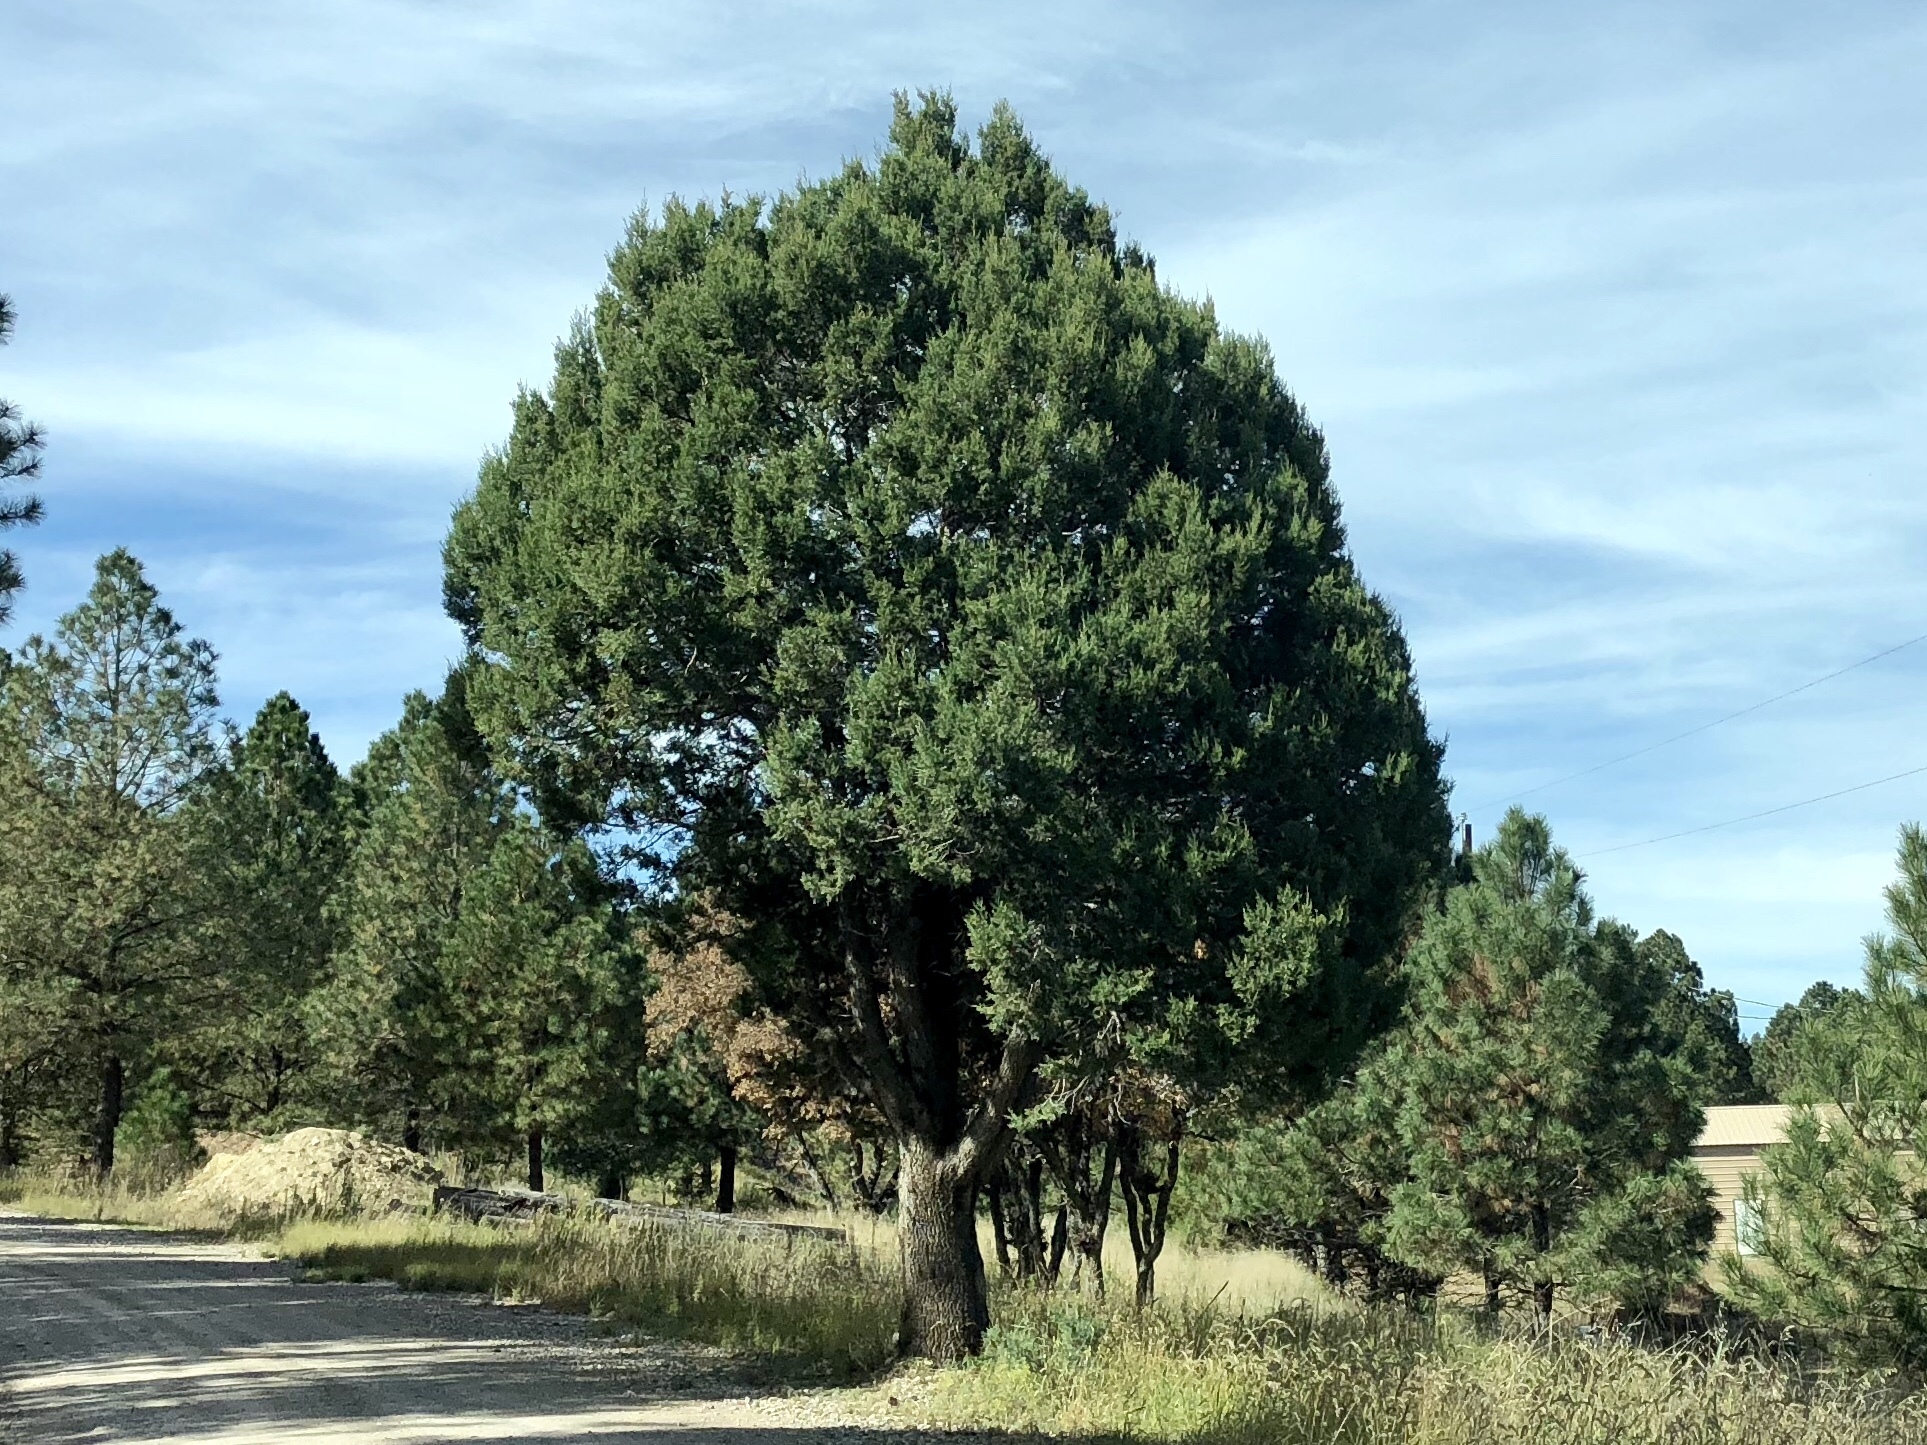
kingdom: Plantae
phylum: Tracheophyta
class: Pinopsida
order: Pinales
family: Cupressaceae
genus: Juniperus
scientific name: Juniperus deppeana
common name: Alligator juniper
